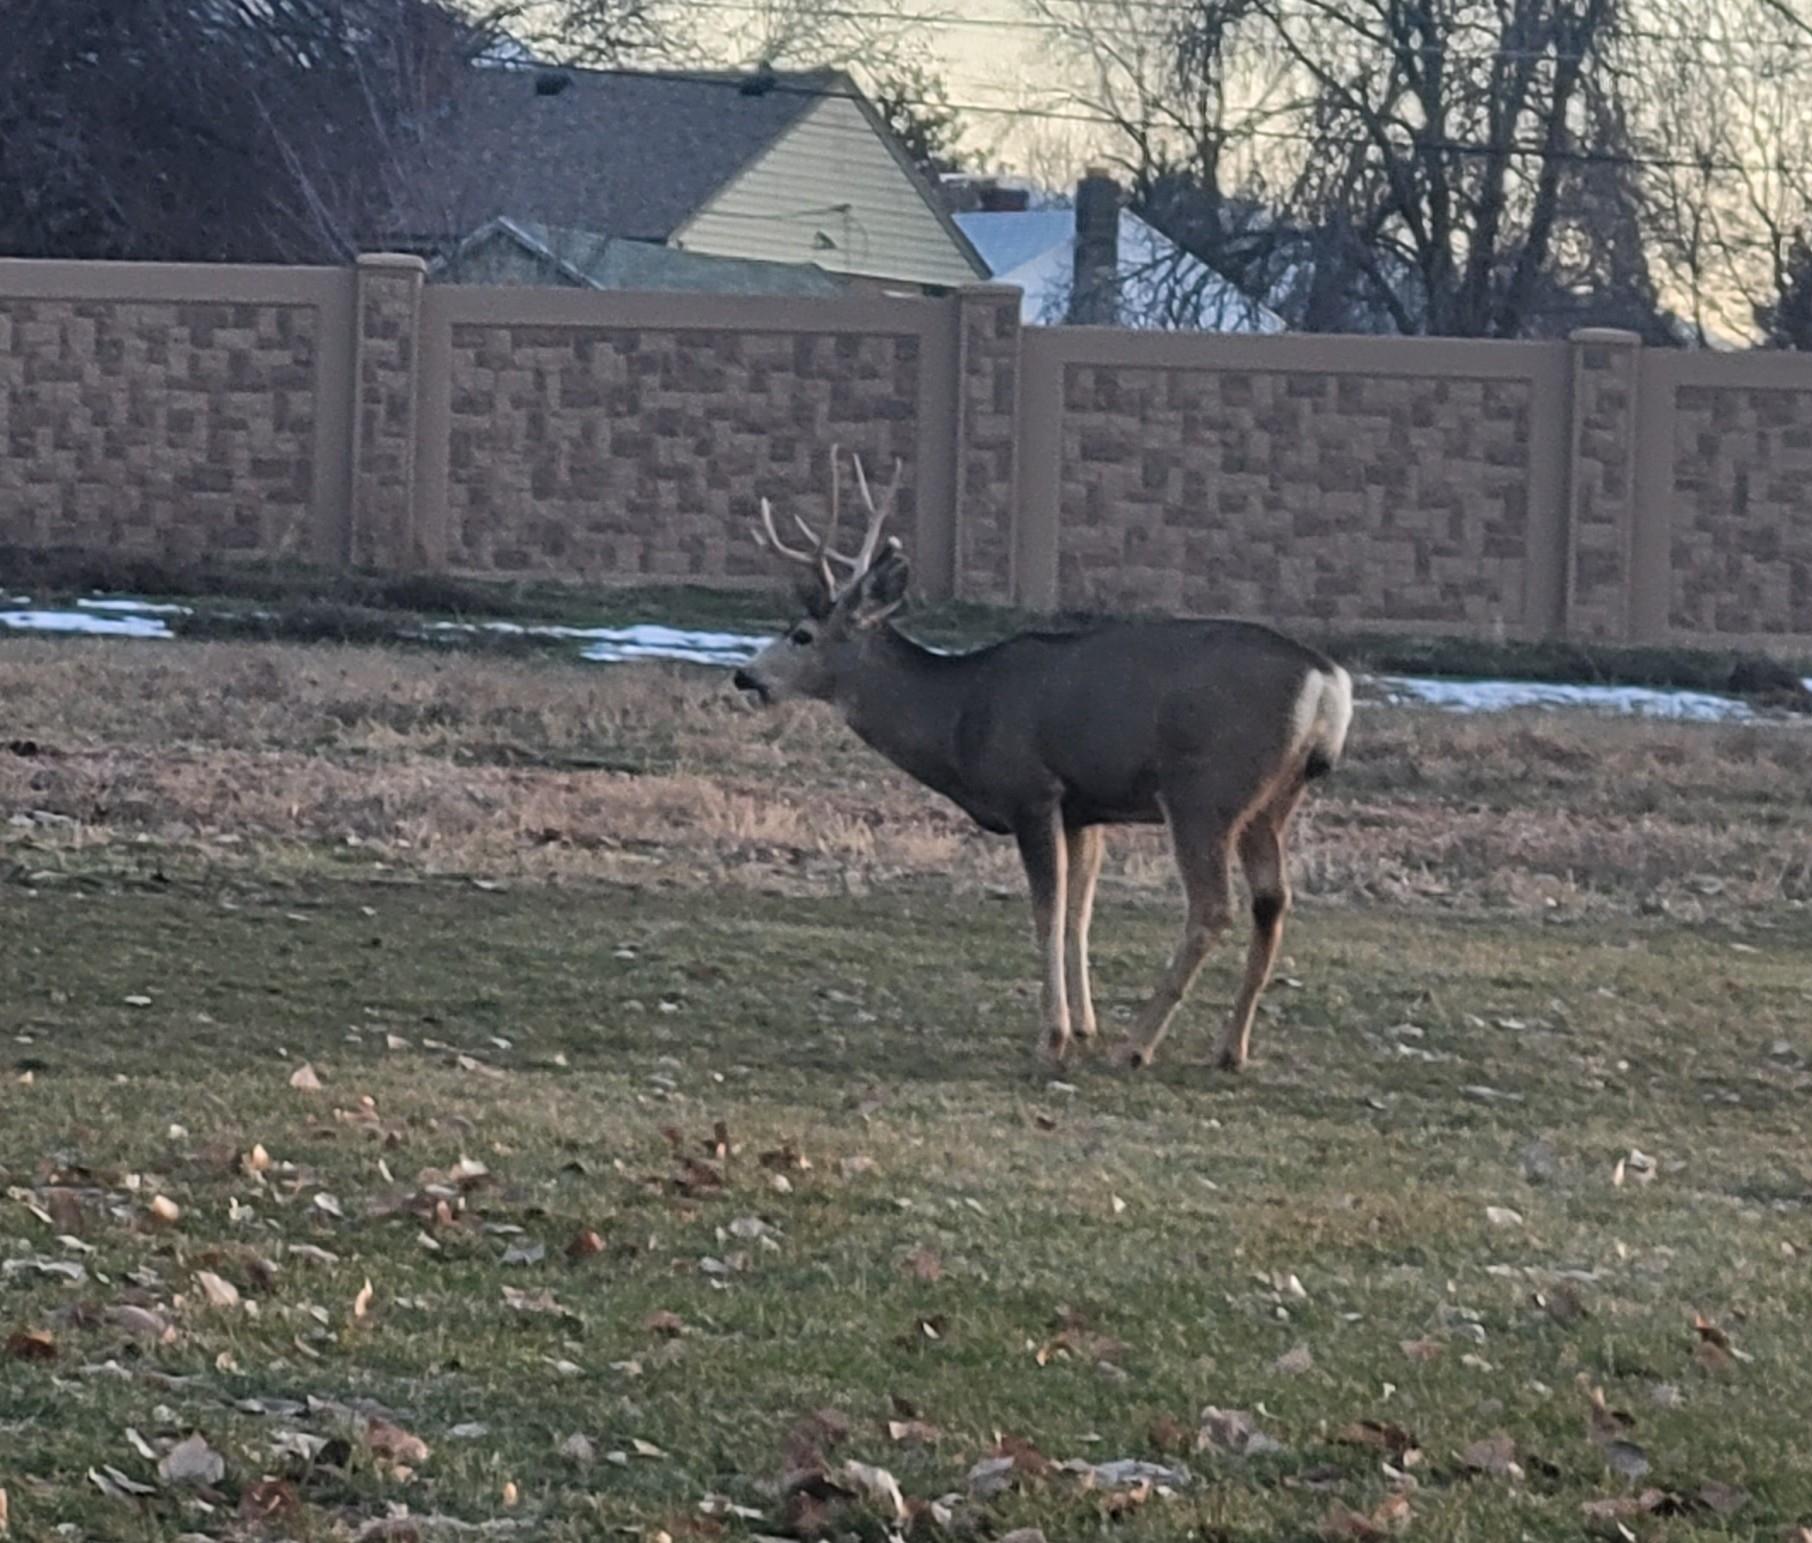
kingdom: Animalia
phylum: Chordata
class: Mammalia
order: Artiodactyla
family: Cervidae
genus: Odocoileus
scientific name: Odocoileus hemionus
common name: Mule deer
